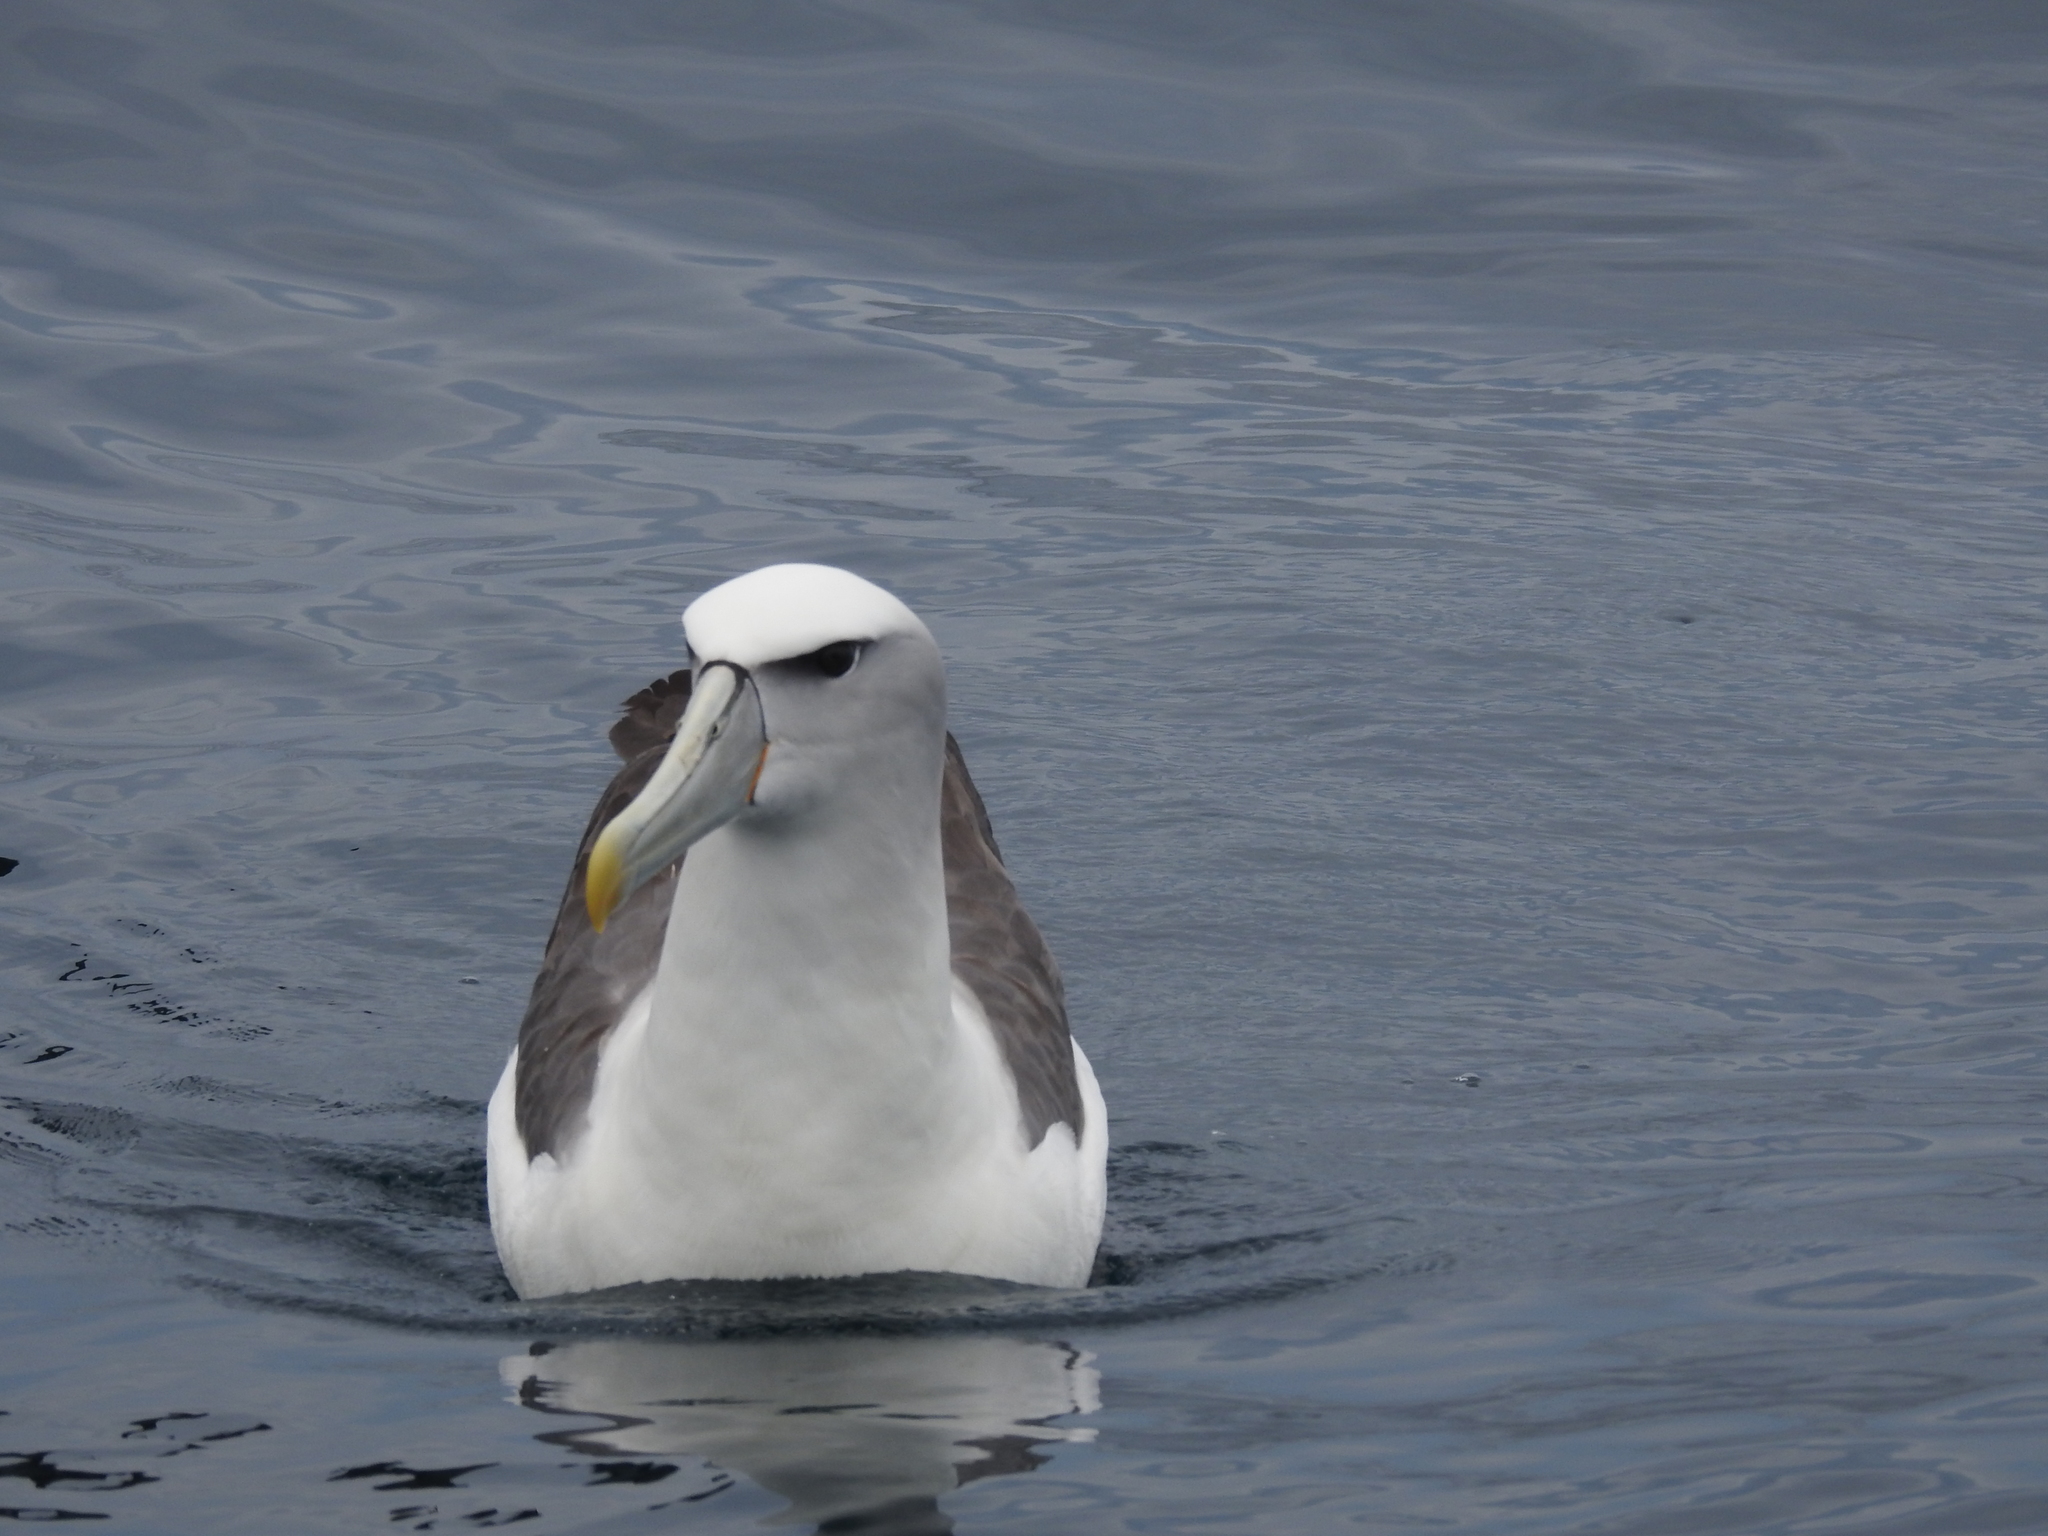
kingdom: Animalia
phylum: Chordata
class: Aves
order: Procellariiformes
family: Diomedeidae
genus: Thalassarche
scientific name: Thalassarche cauta
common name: Shy albatross
